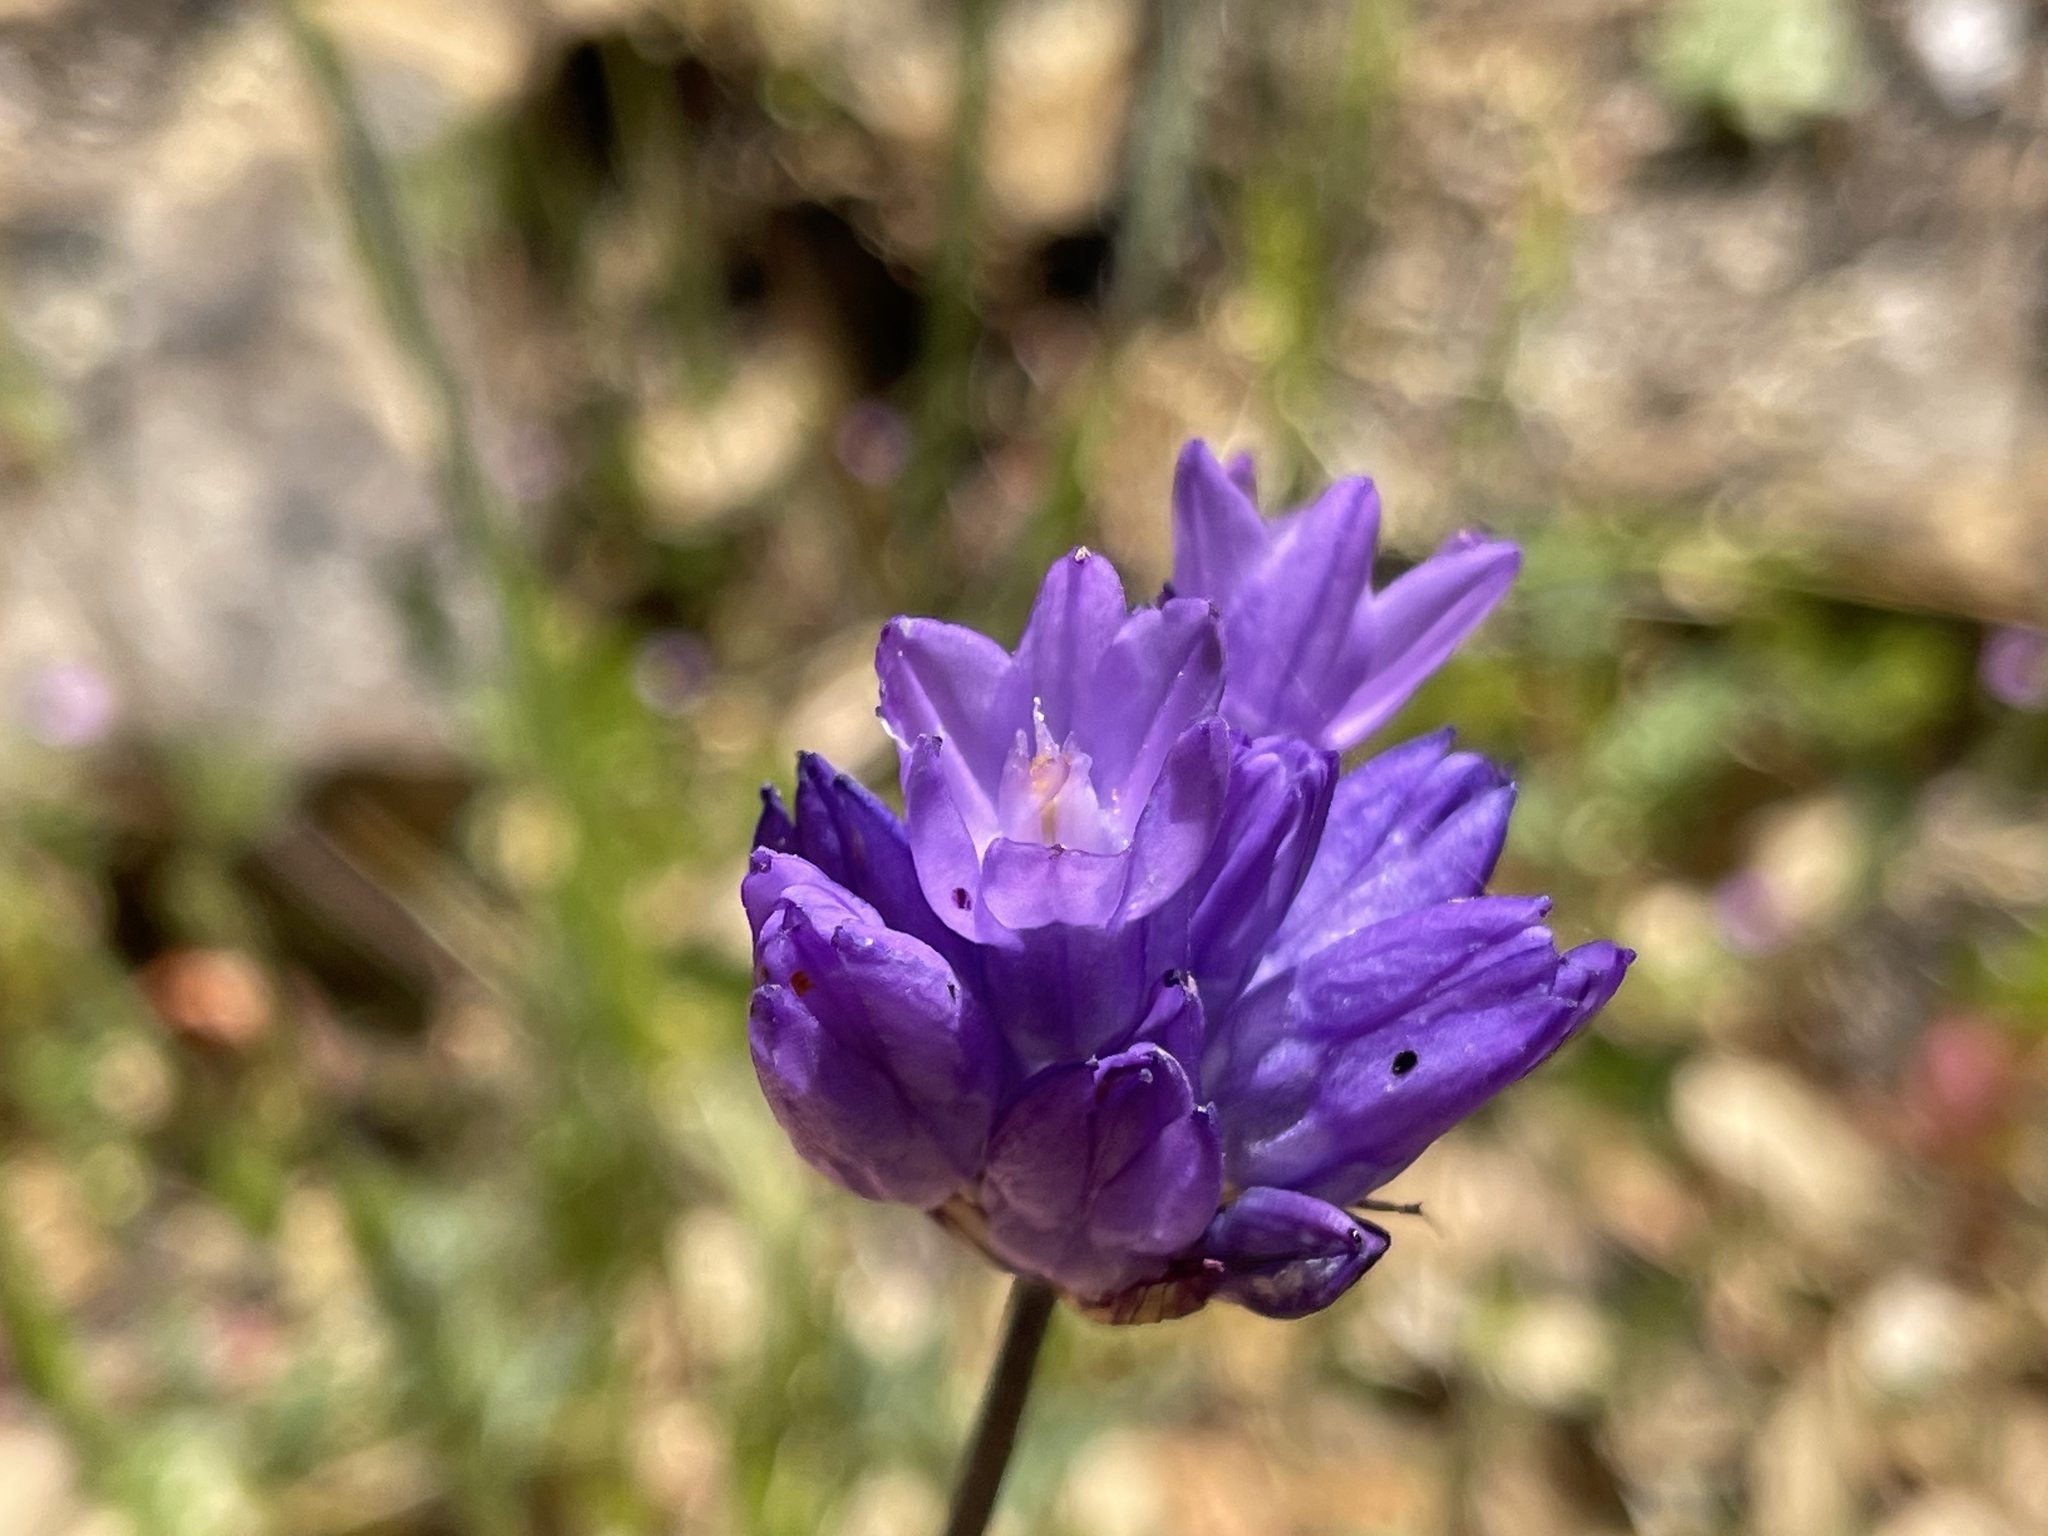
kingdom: Plantae
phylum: Tracheophyta
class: Liliopsida
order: Asparagales
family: Asparagaceae
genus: Dipterostemon
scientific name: Dipterostemon capitatus
